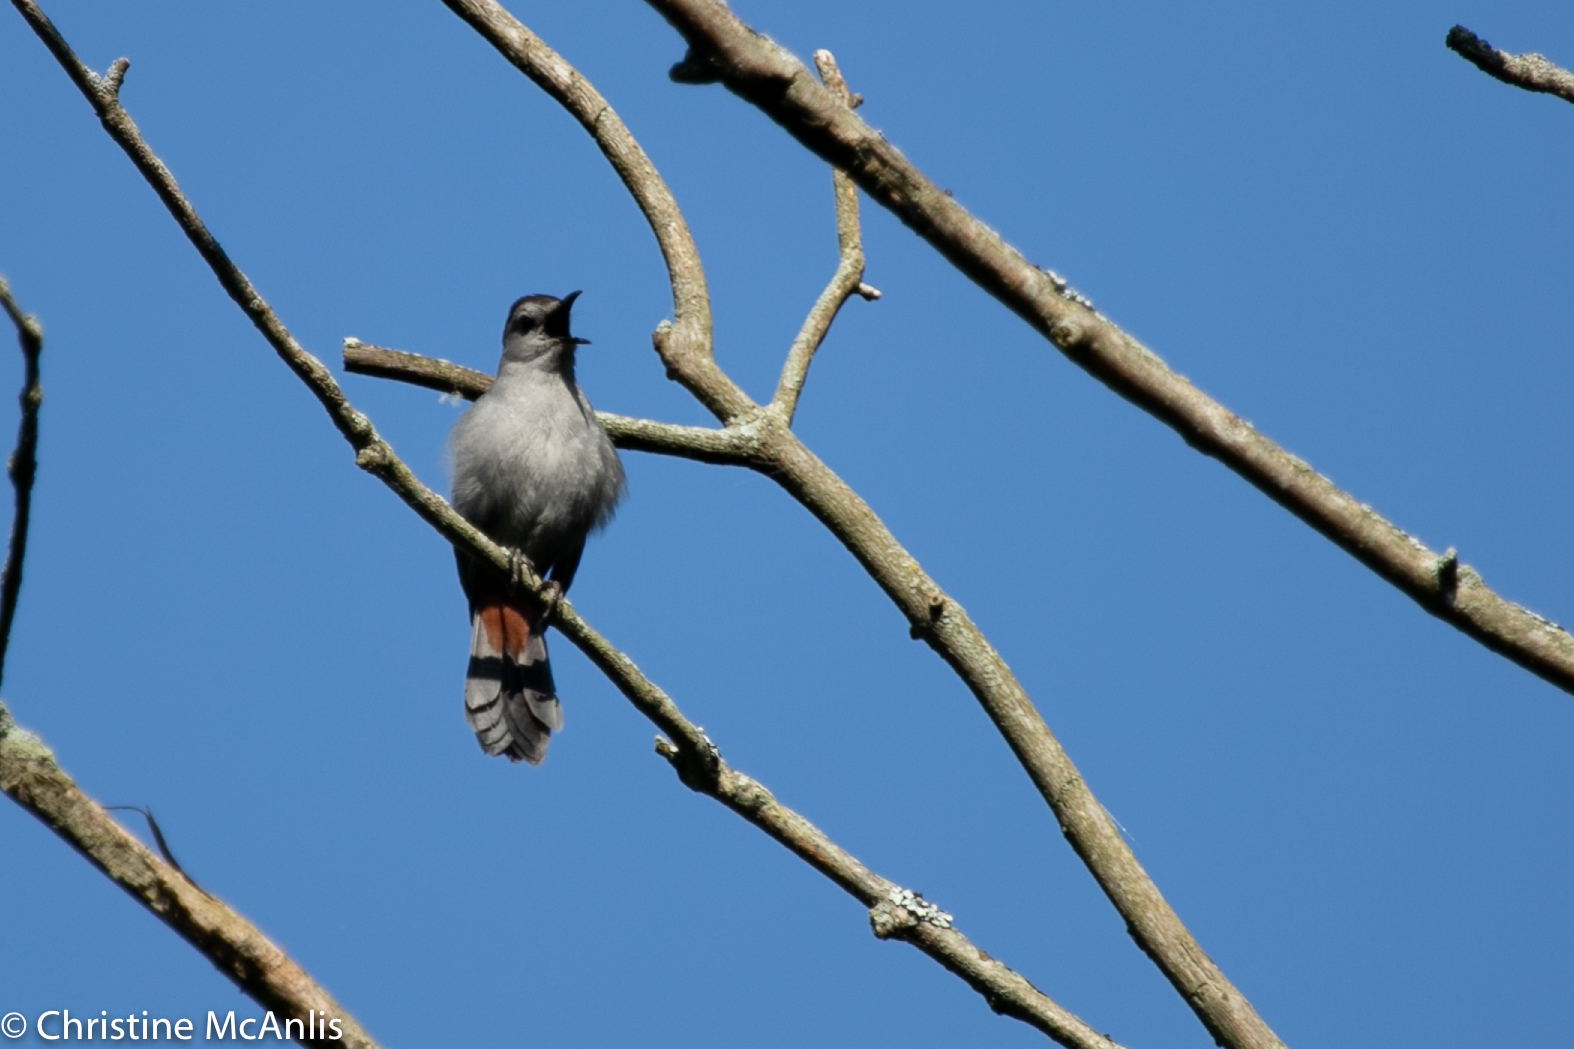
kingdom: Animalia
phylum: Chordata
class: Aves
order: Passeriformes
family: Mimidae
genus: Dumetella
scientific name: Dumetella carolinensis
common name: Gray catbird
